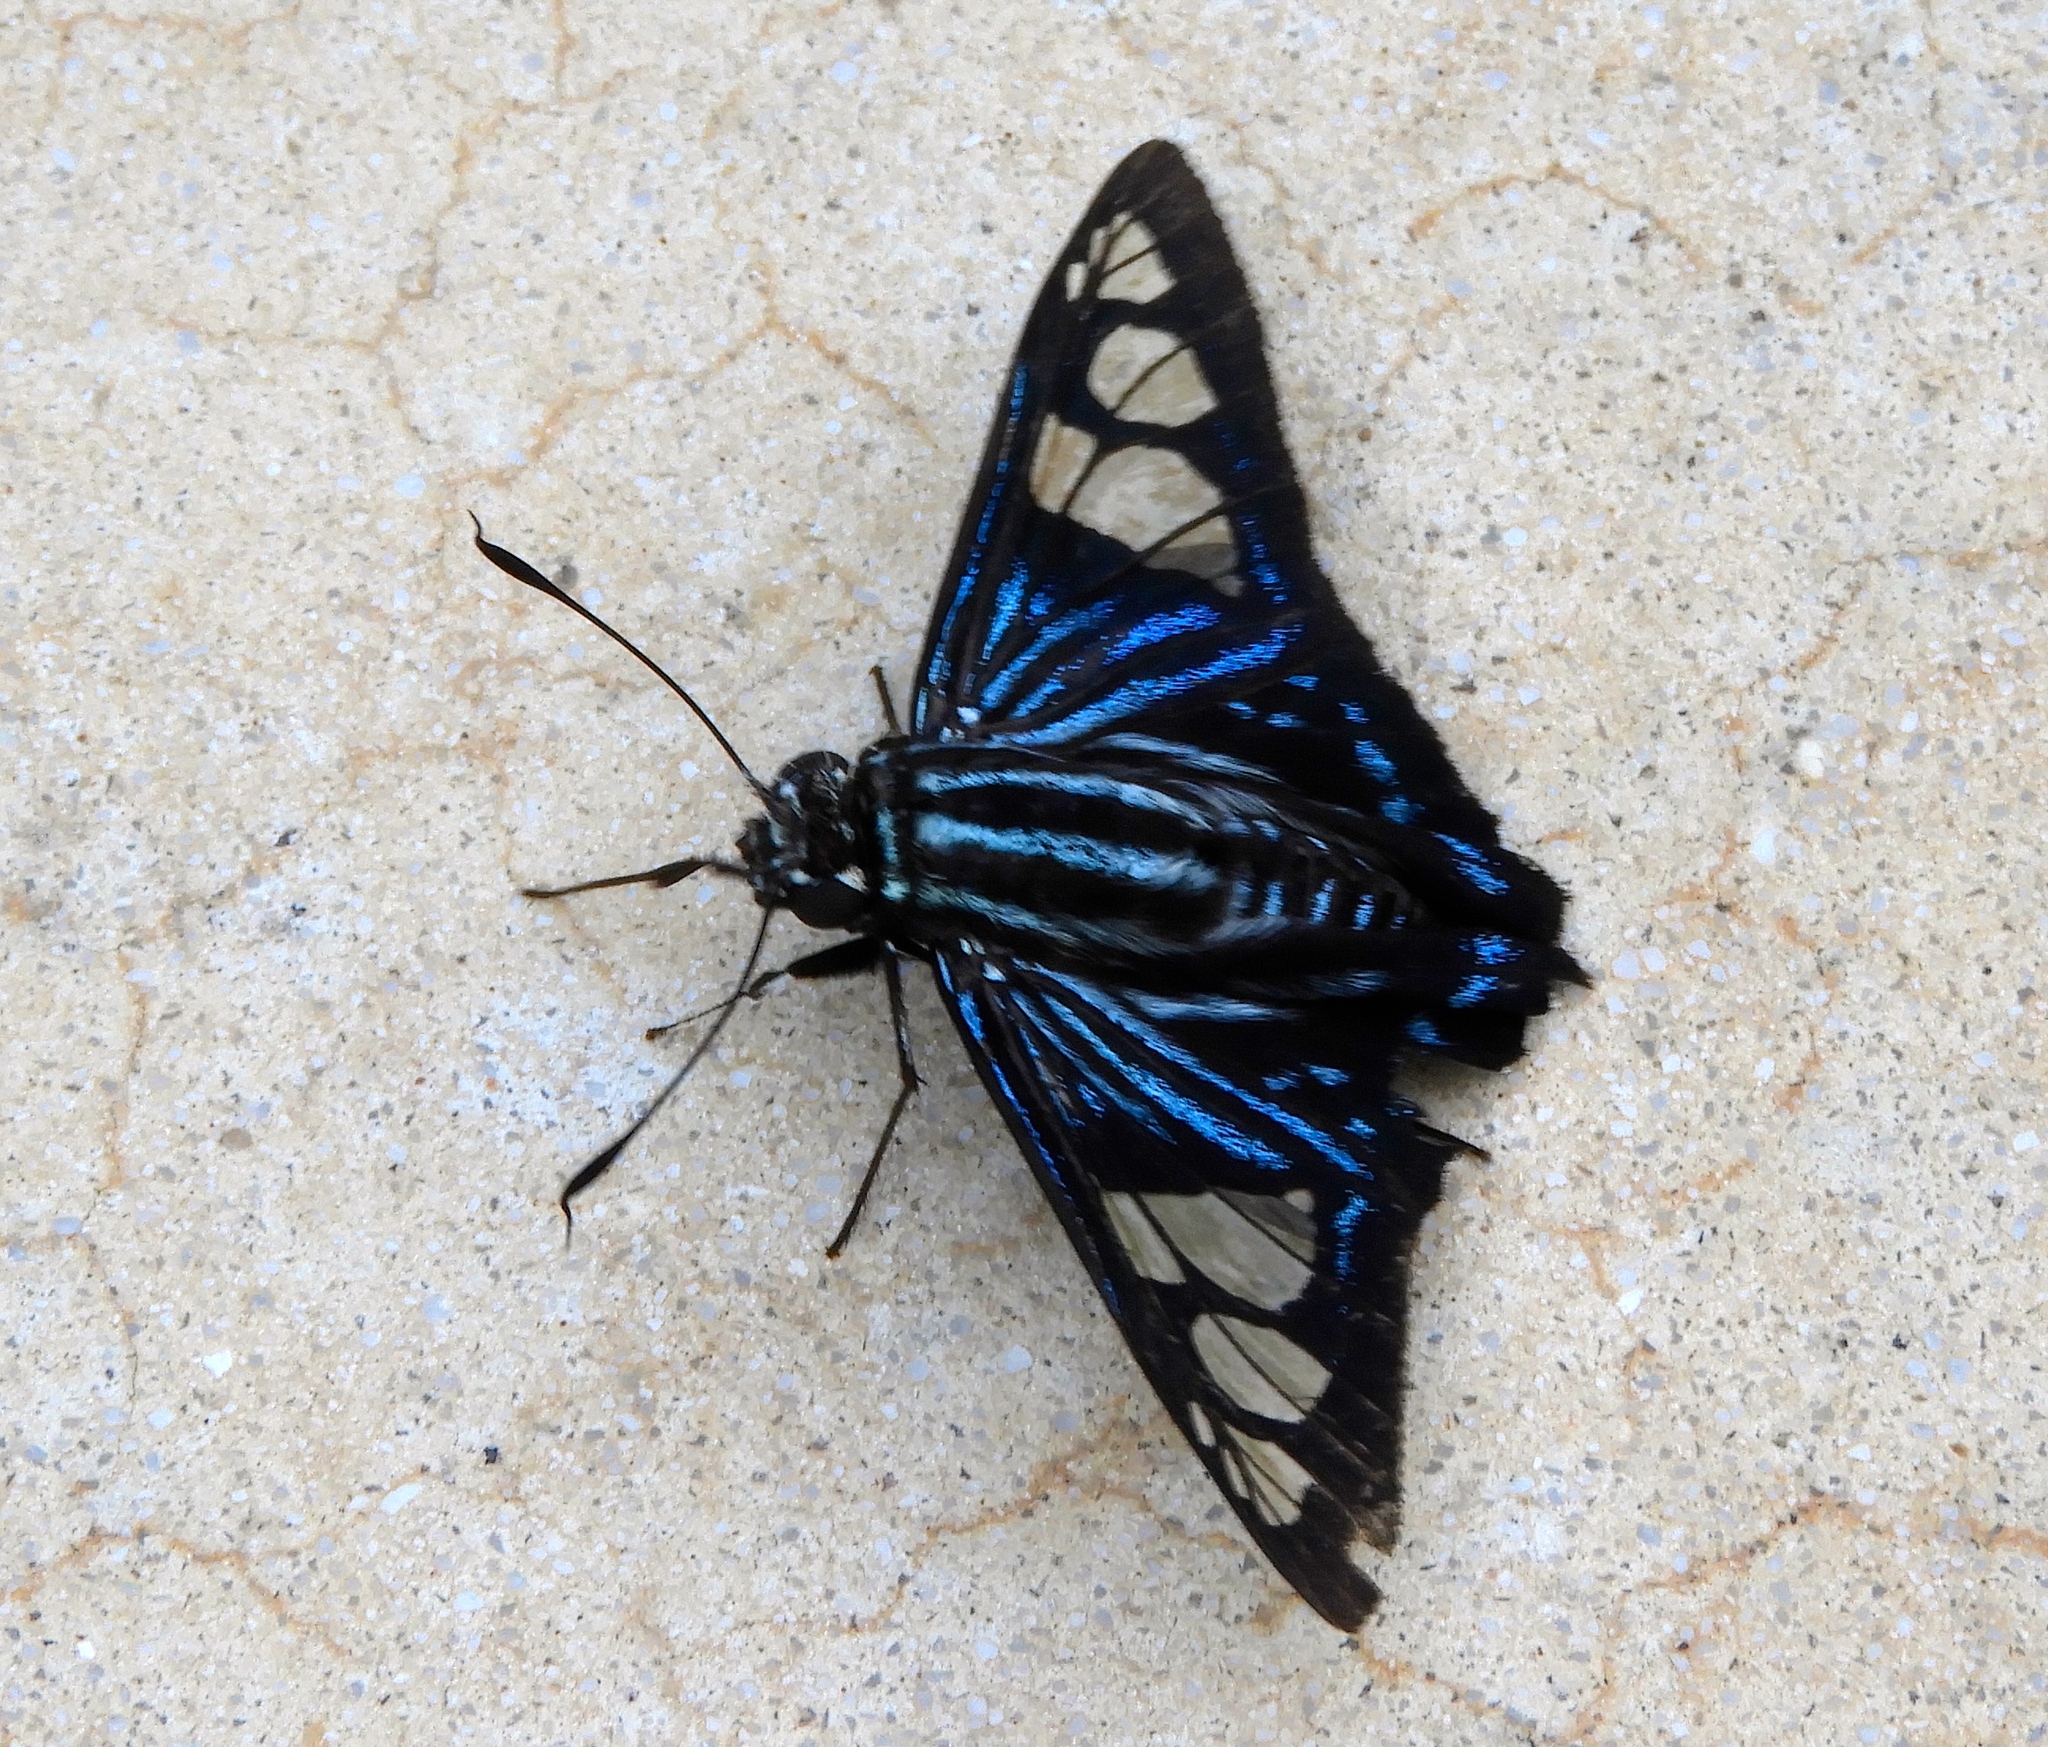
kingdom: Animalia
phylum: Arthropoda
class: Insecta
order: Lepidoptera
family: Hesperiidae
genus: Phocides
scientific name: Phocides pigmalion
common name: Mangrove skipper
